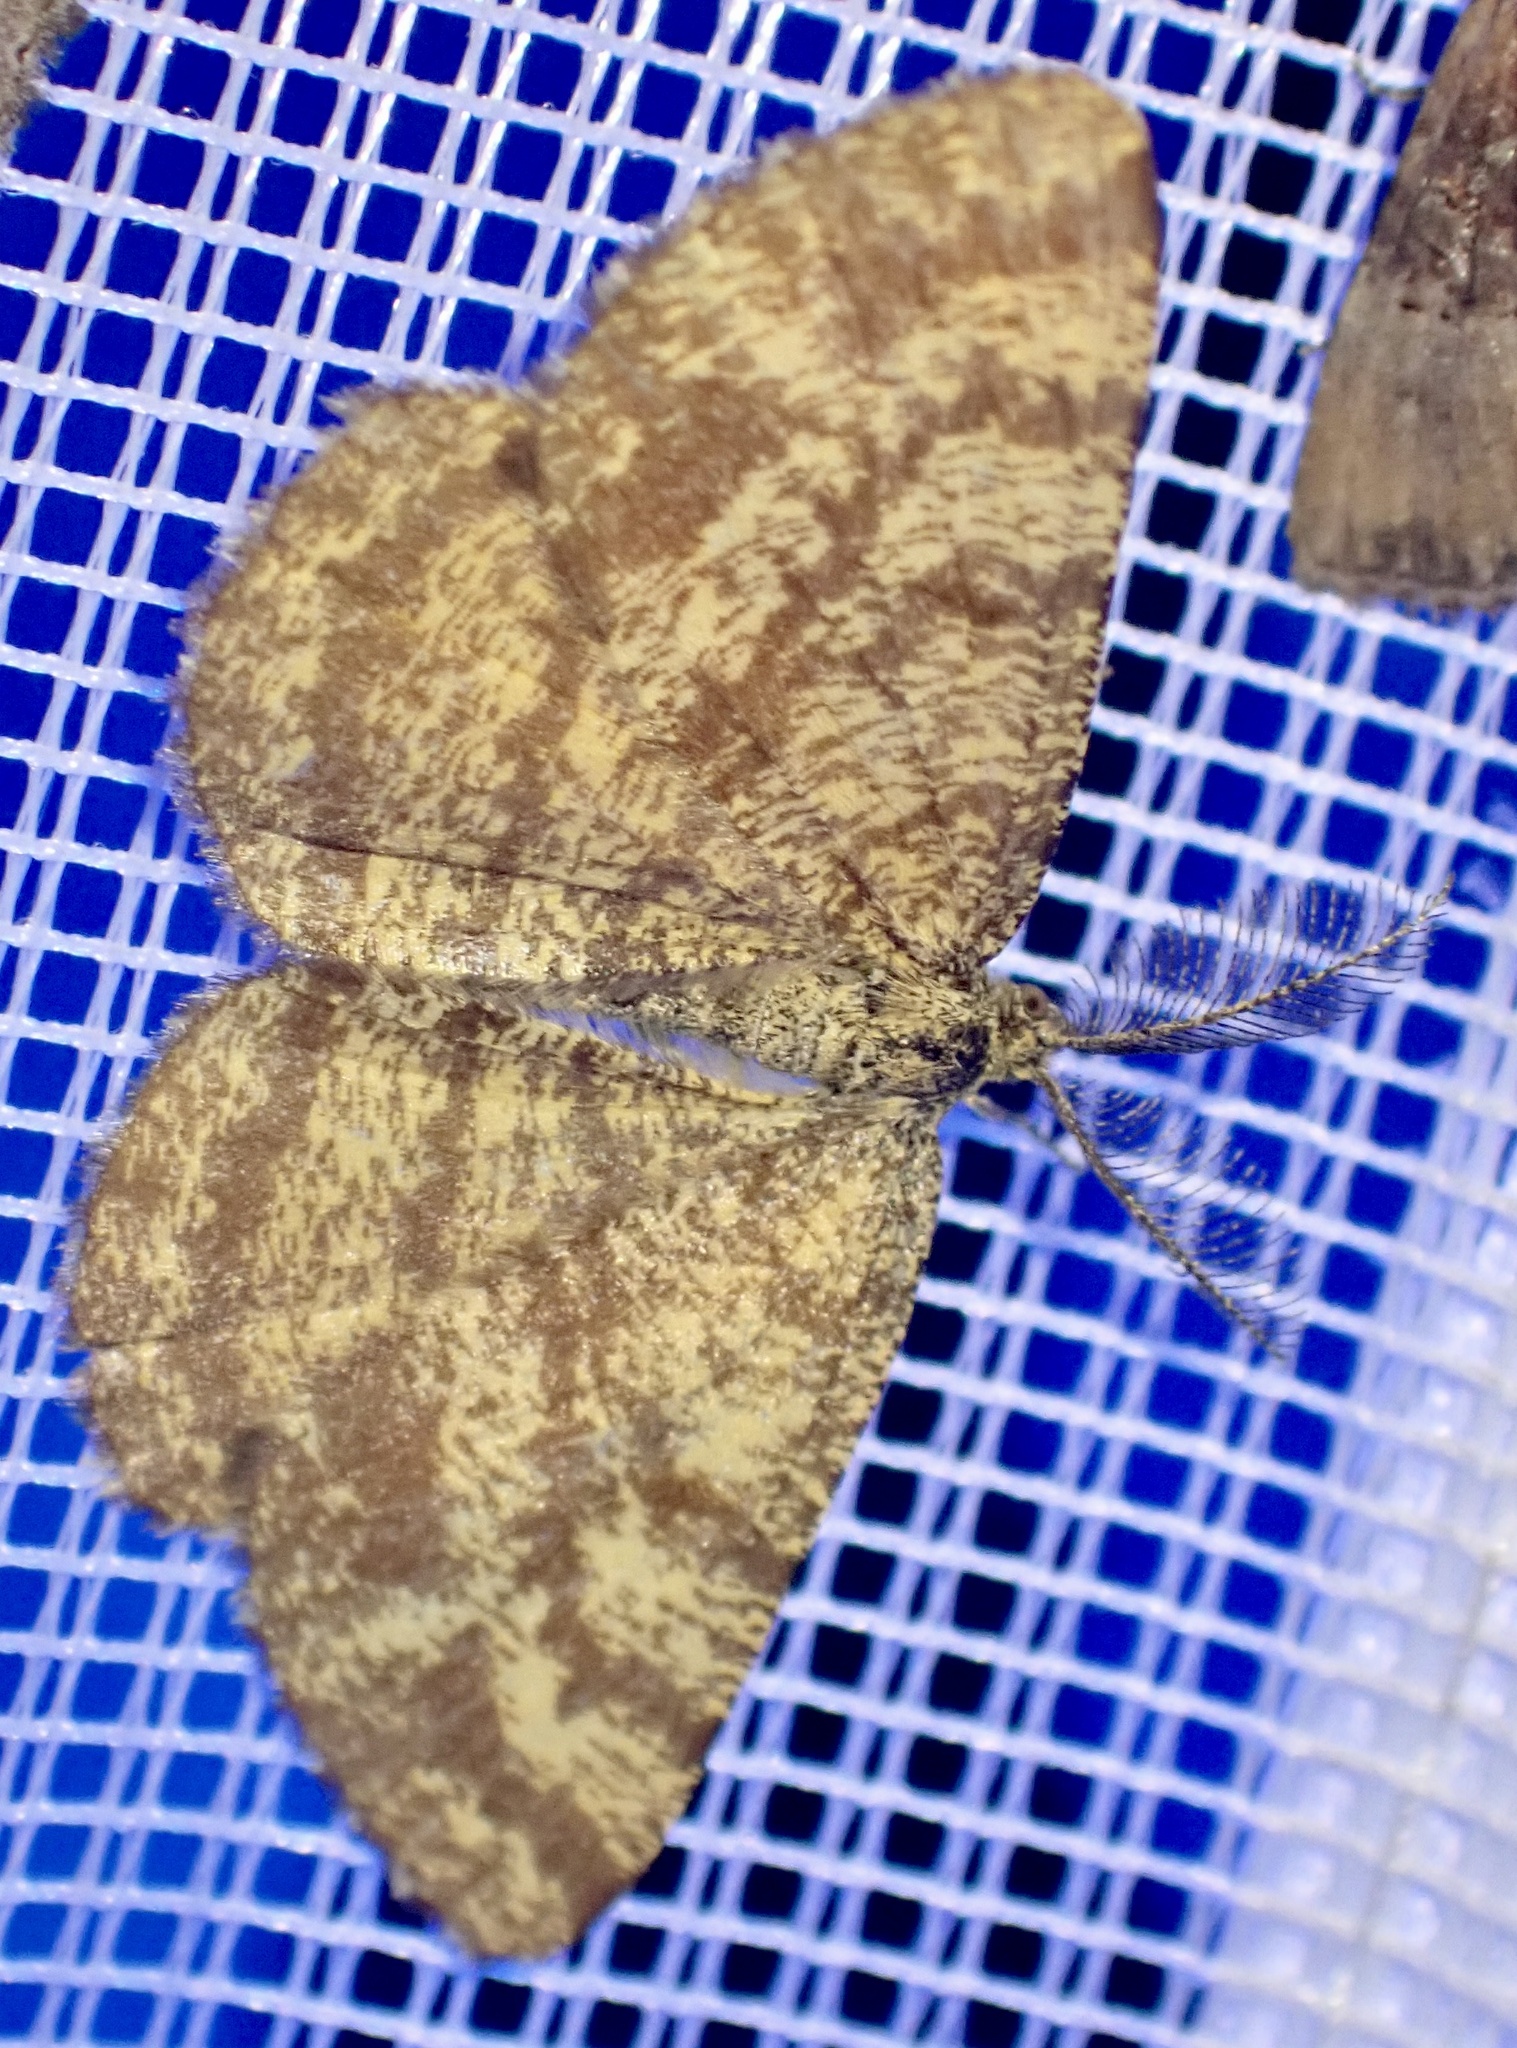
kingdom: Animalia
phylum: Arthropoda
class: Insecta
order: Lepidoptera
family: Geometridae
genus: Ematurga
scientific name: Ematurga atomaria
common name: Common heath
